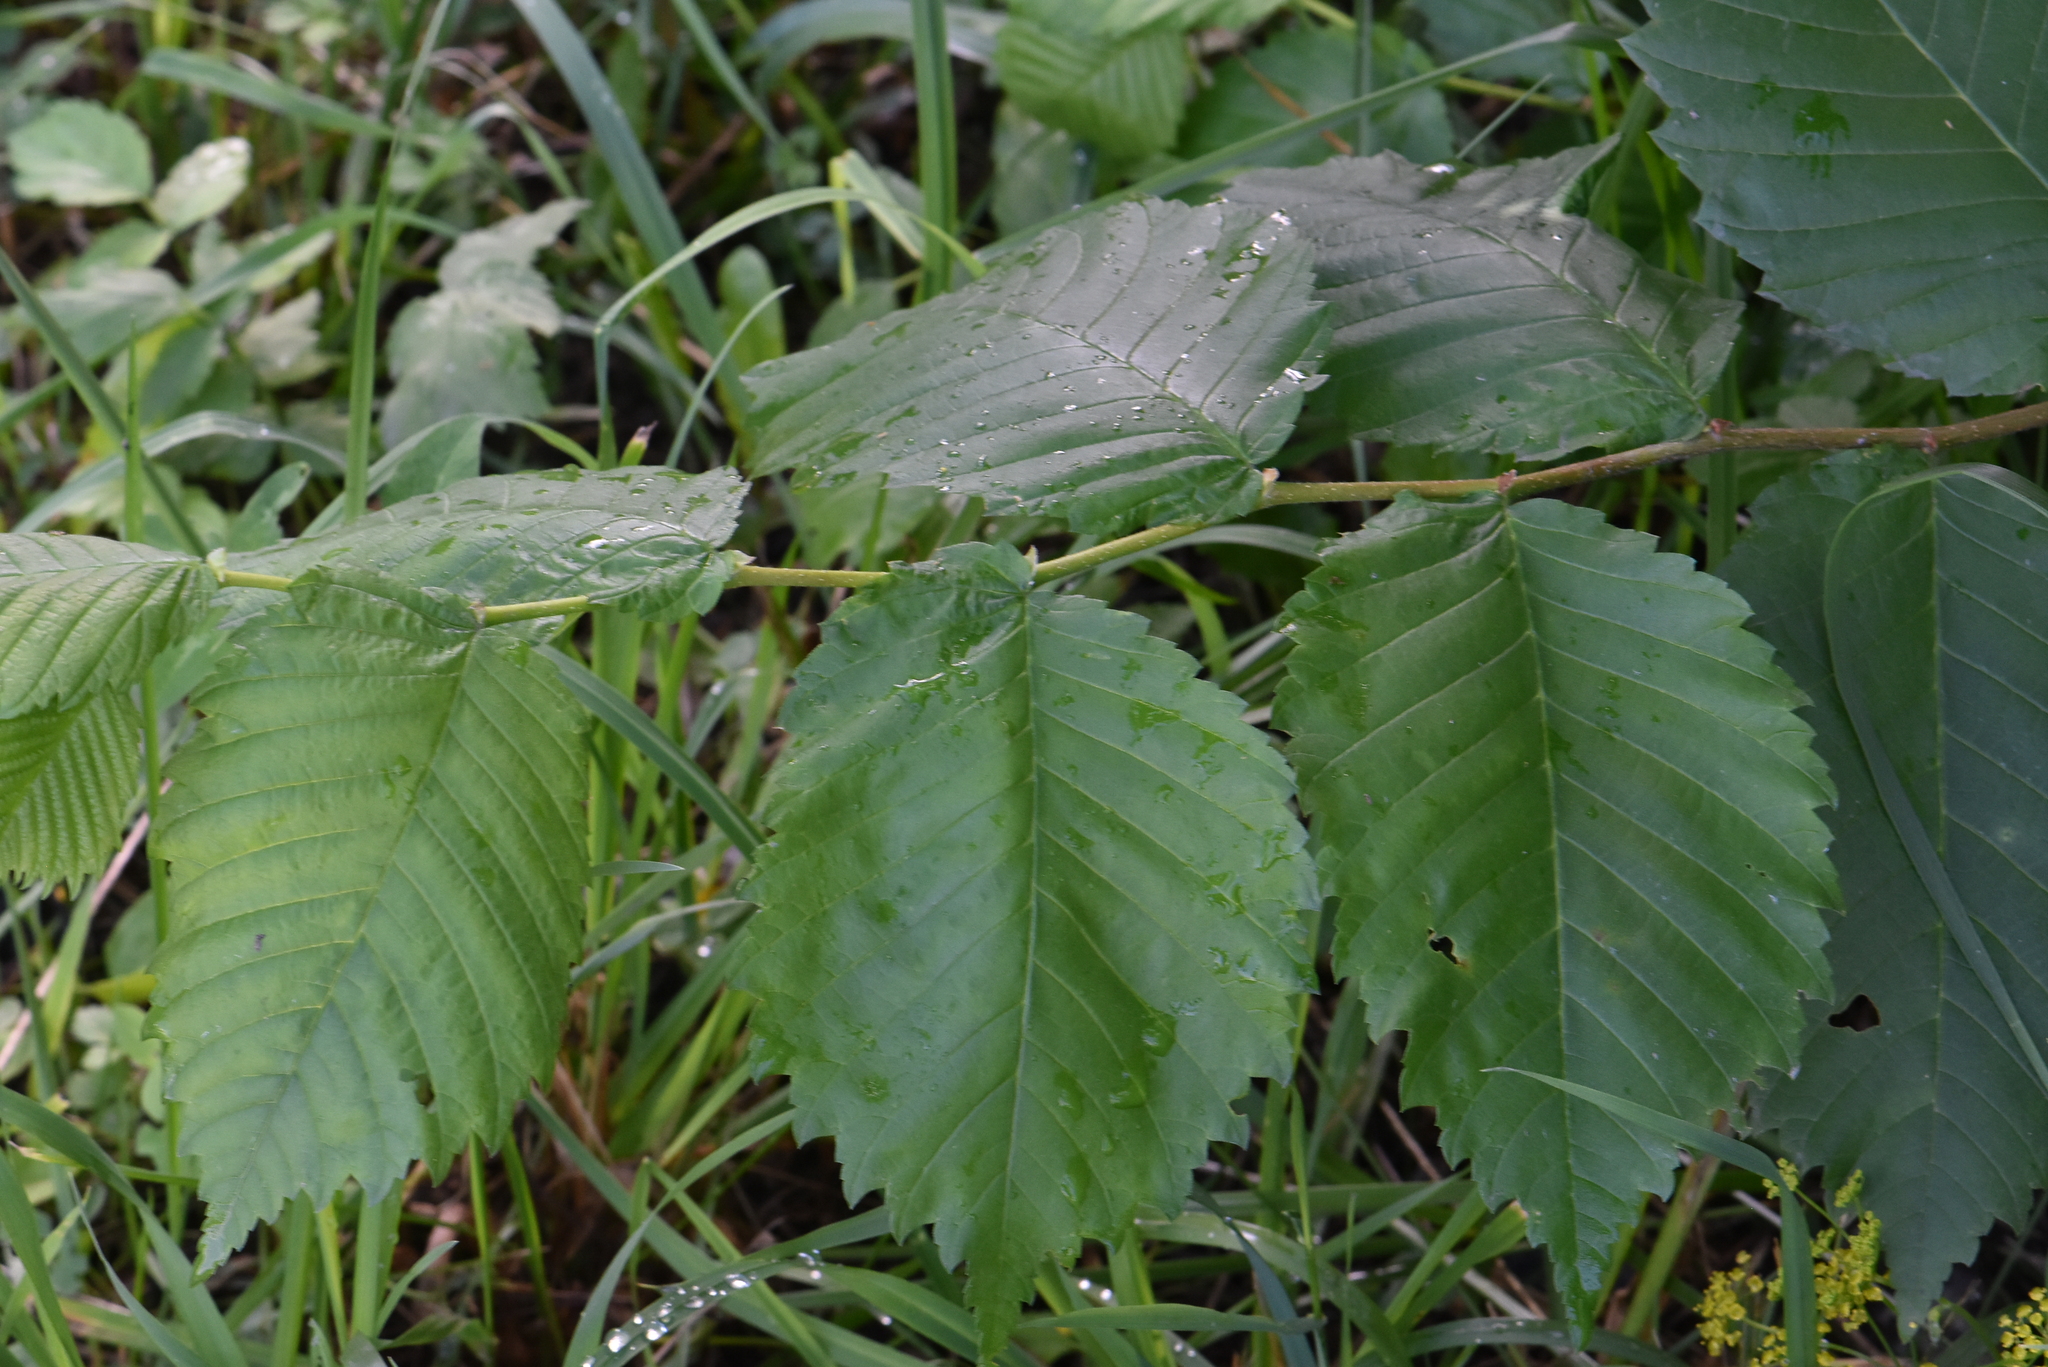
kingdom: Plantae
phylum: Tracheophyta
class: Magnoliopsida
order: Rosales
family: Ulmaceae
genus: Ulmus
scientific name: Ulmus laevis
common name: European white-elm
